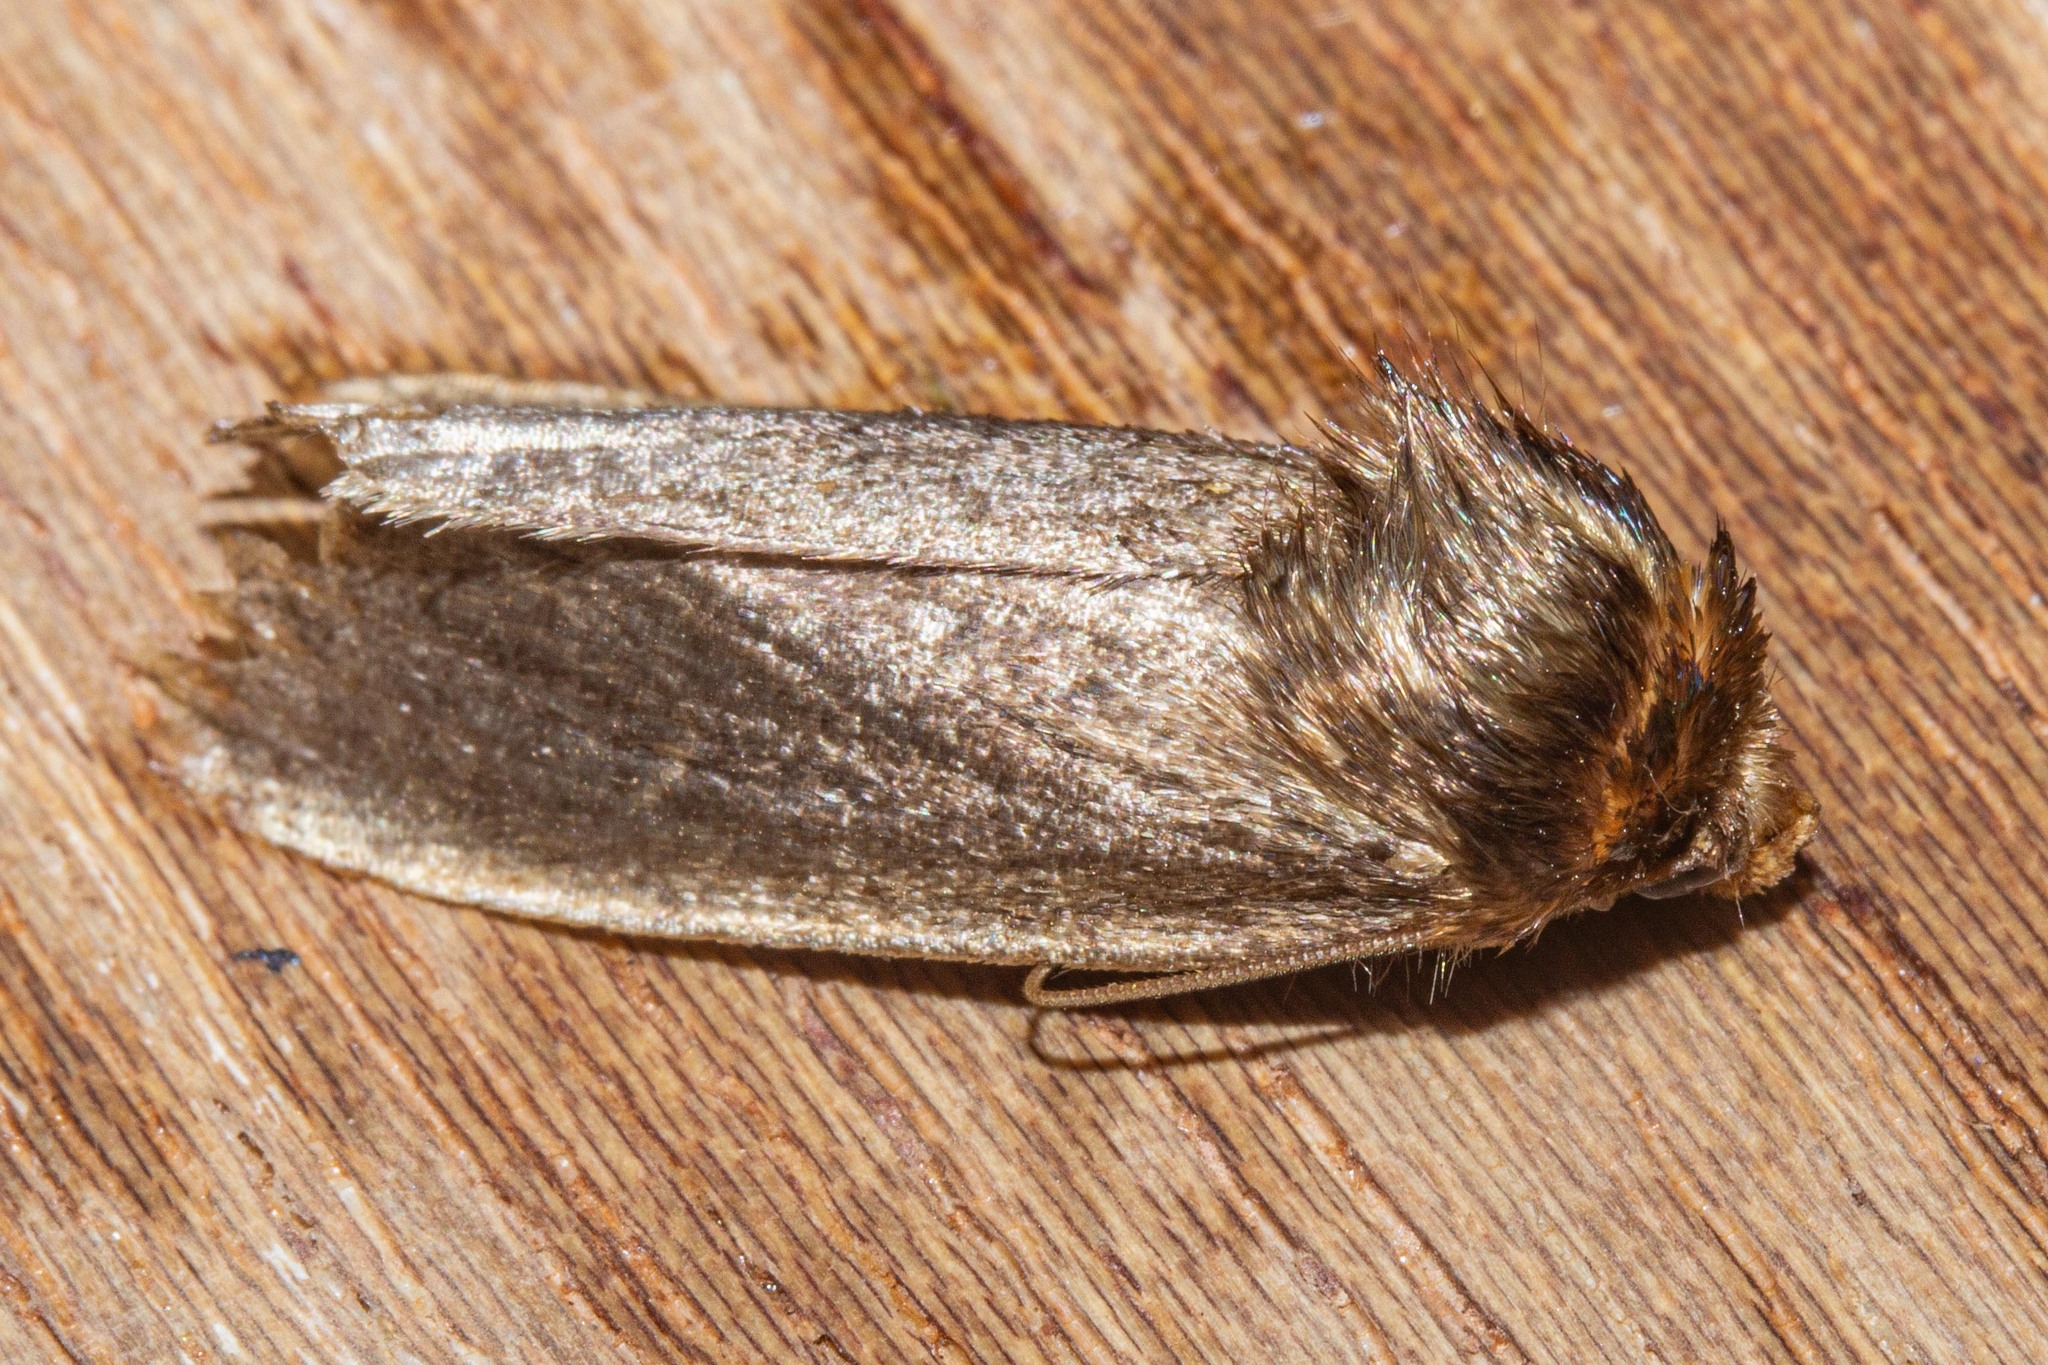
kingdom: Animalia
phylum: Arthropoda
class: Insecta
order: Lepidoptera
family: Noctuidae
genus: Bityla
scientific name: Bityla defigurata
